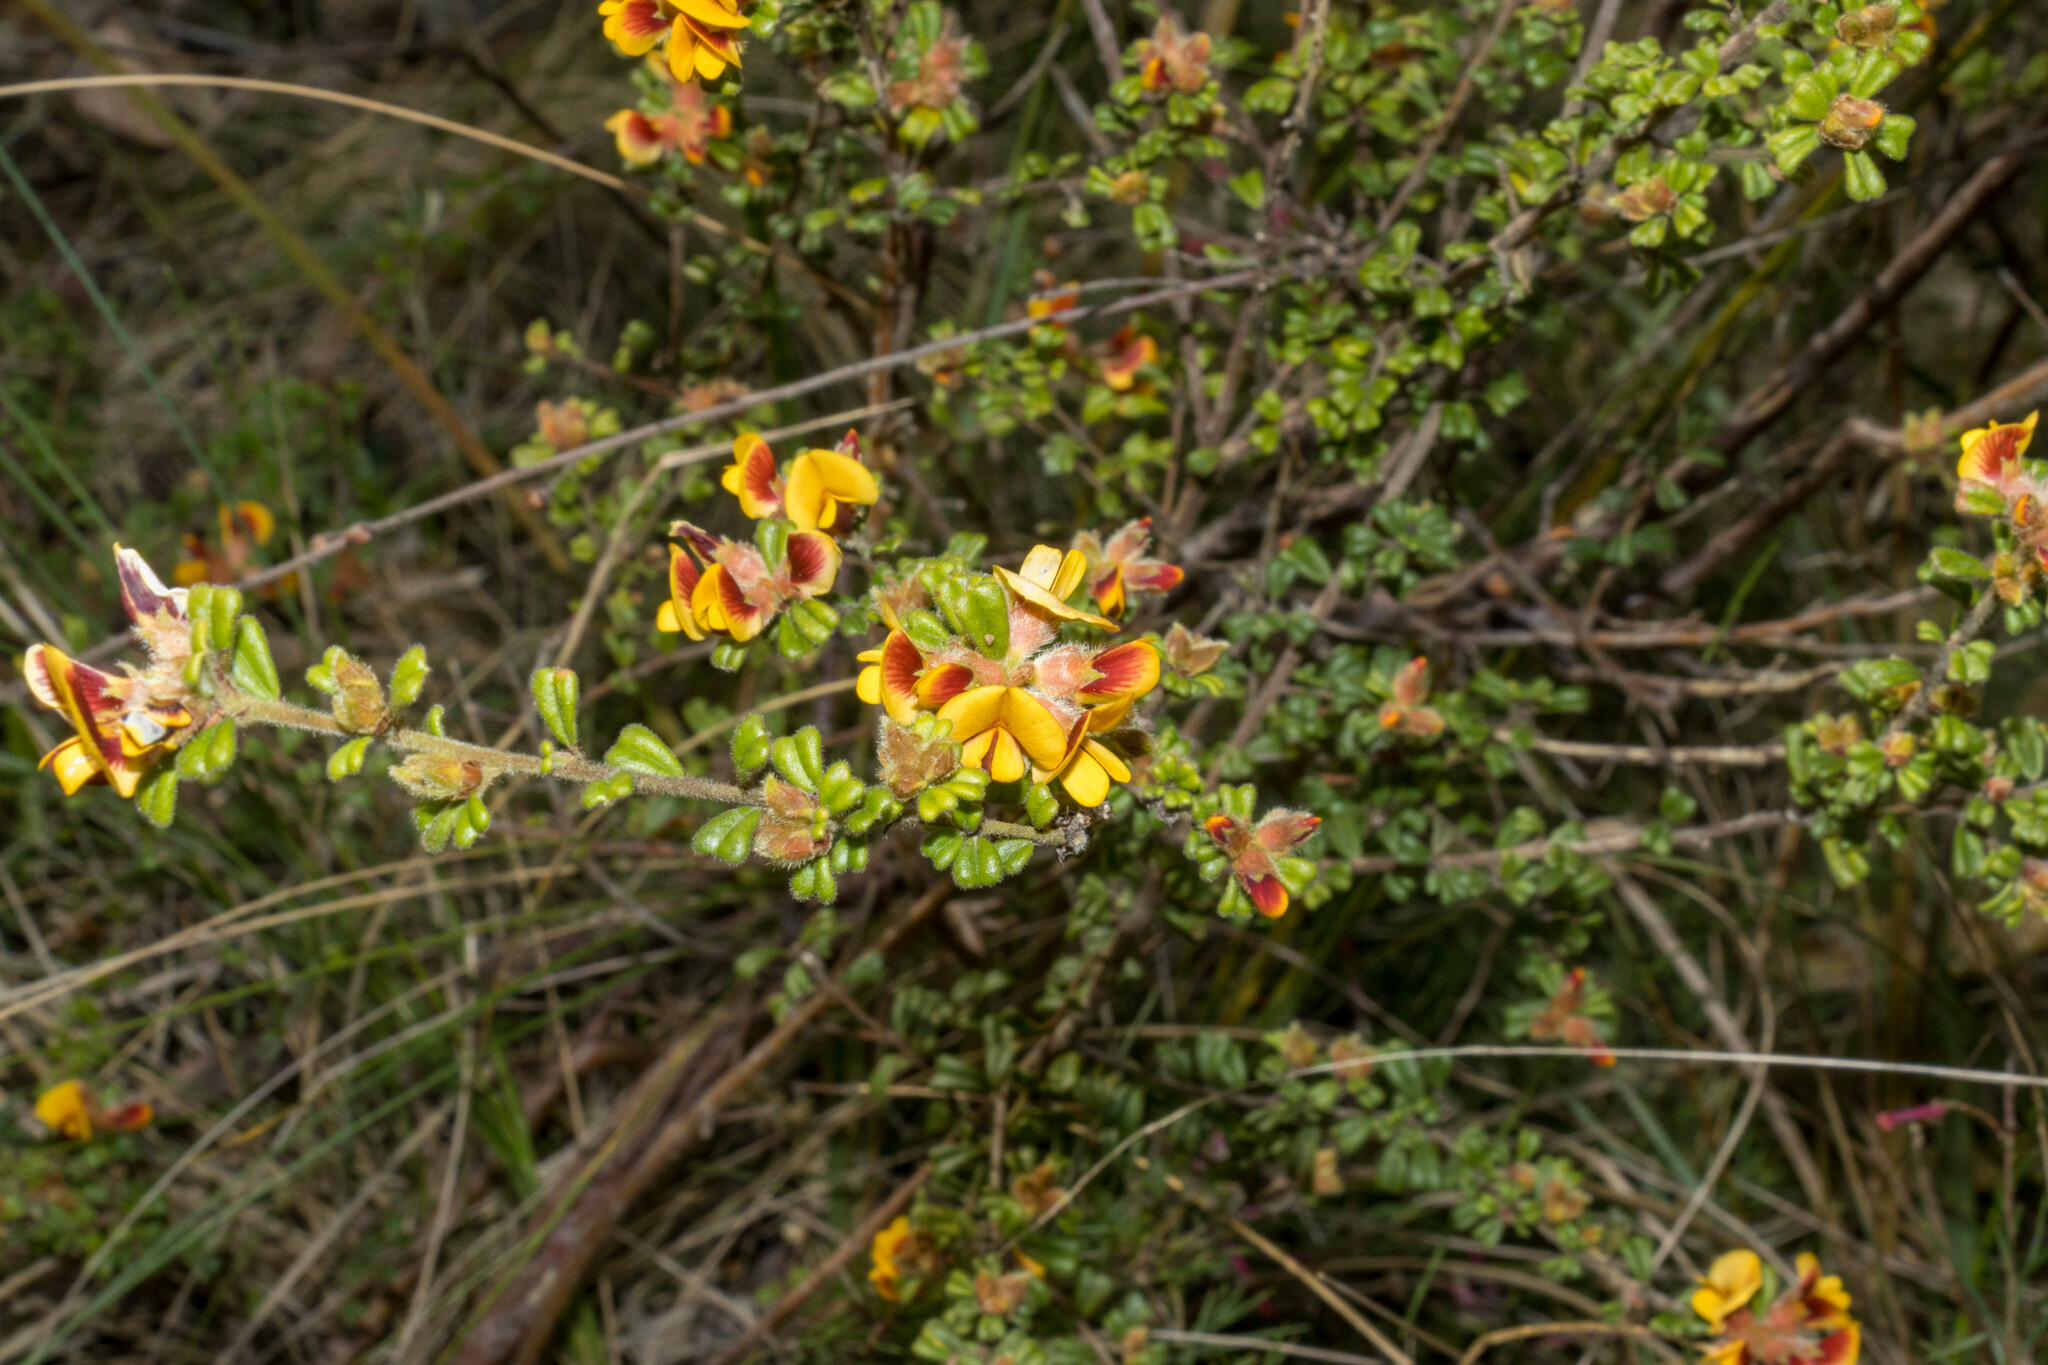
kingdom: Plantae
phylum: Tracheophyta
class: Magnoliopsida
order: Fabales
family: Fabaceae
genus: Pultenaea
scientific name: Pultenaea scabra
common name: Rough bush-pea
